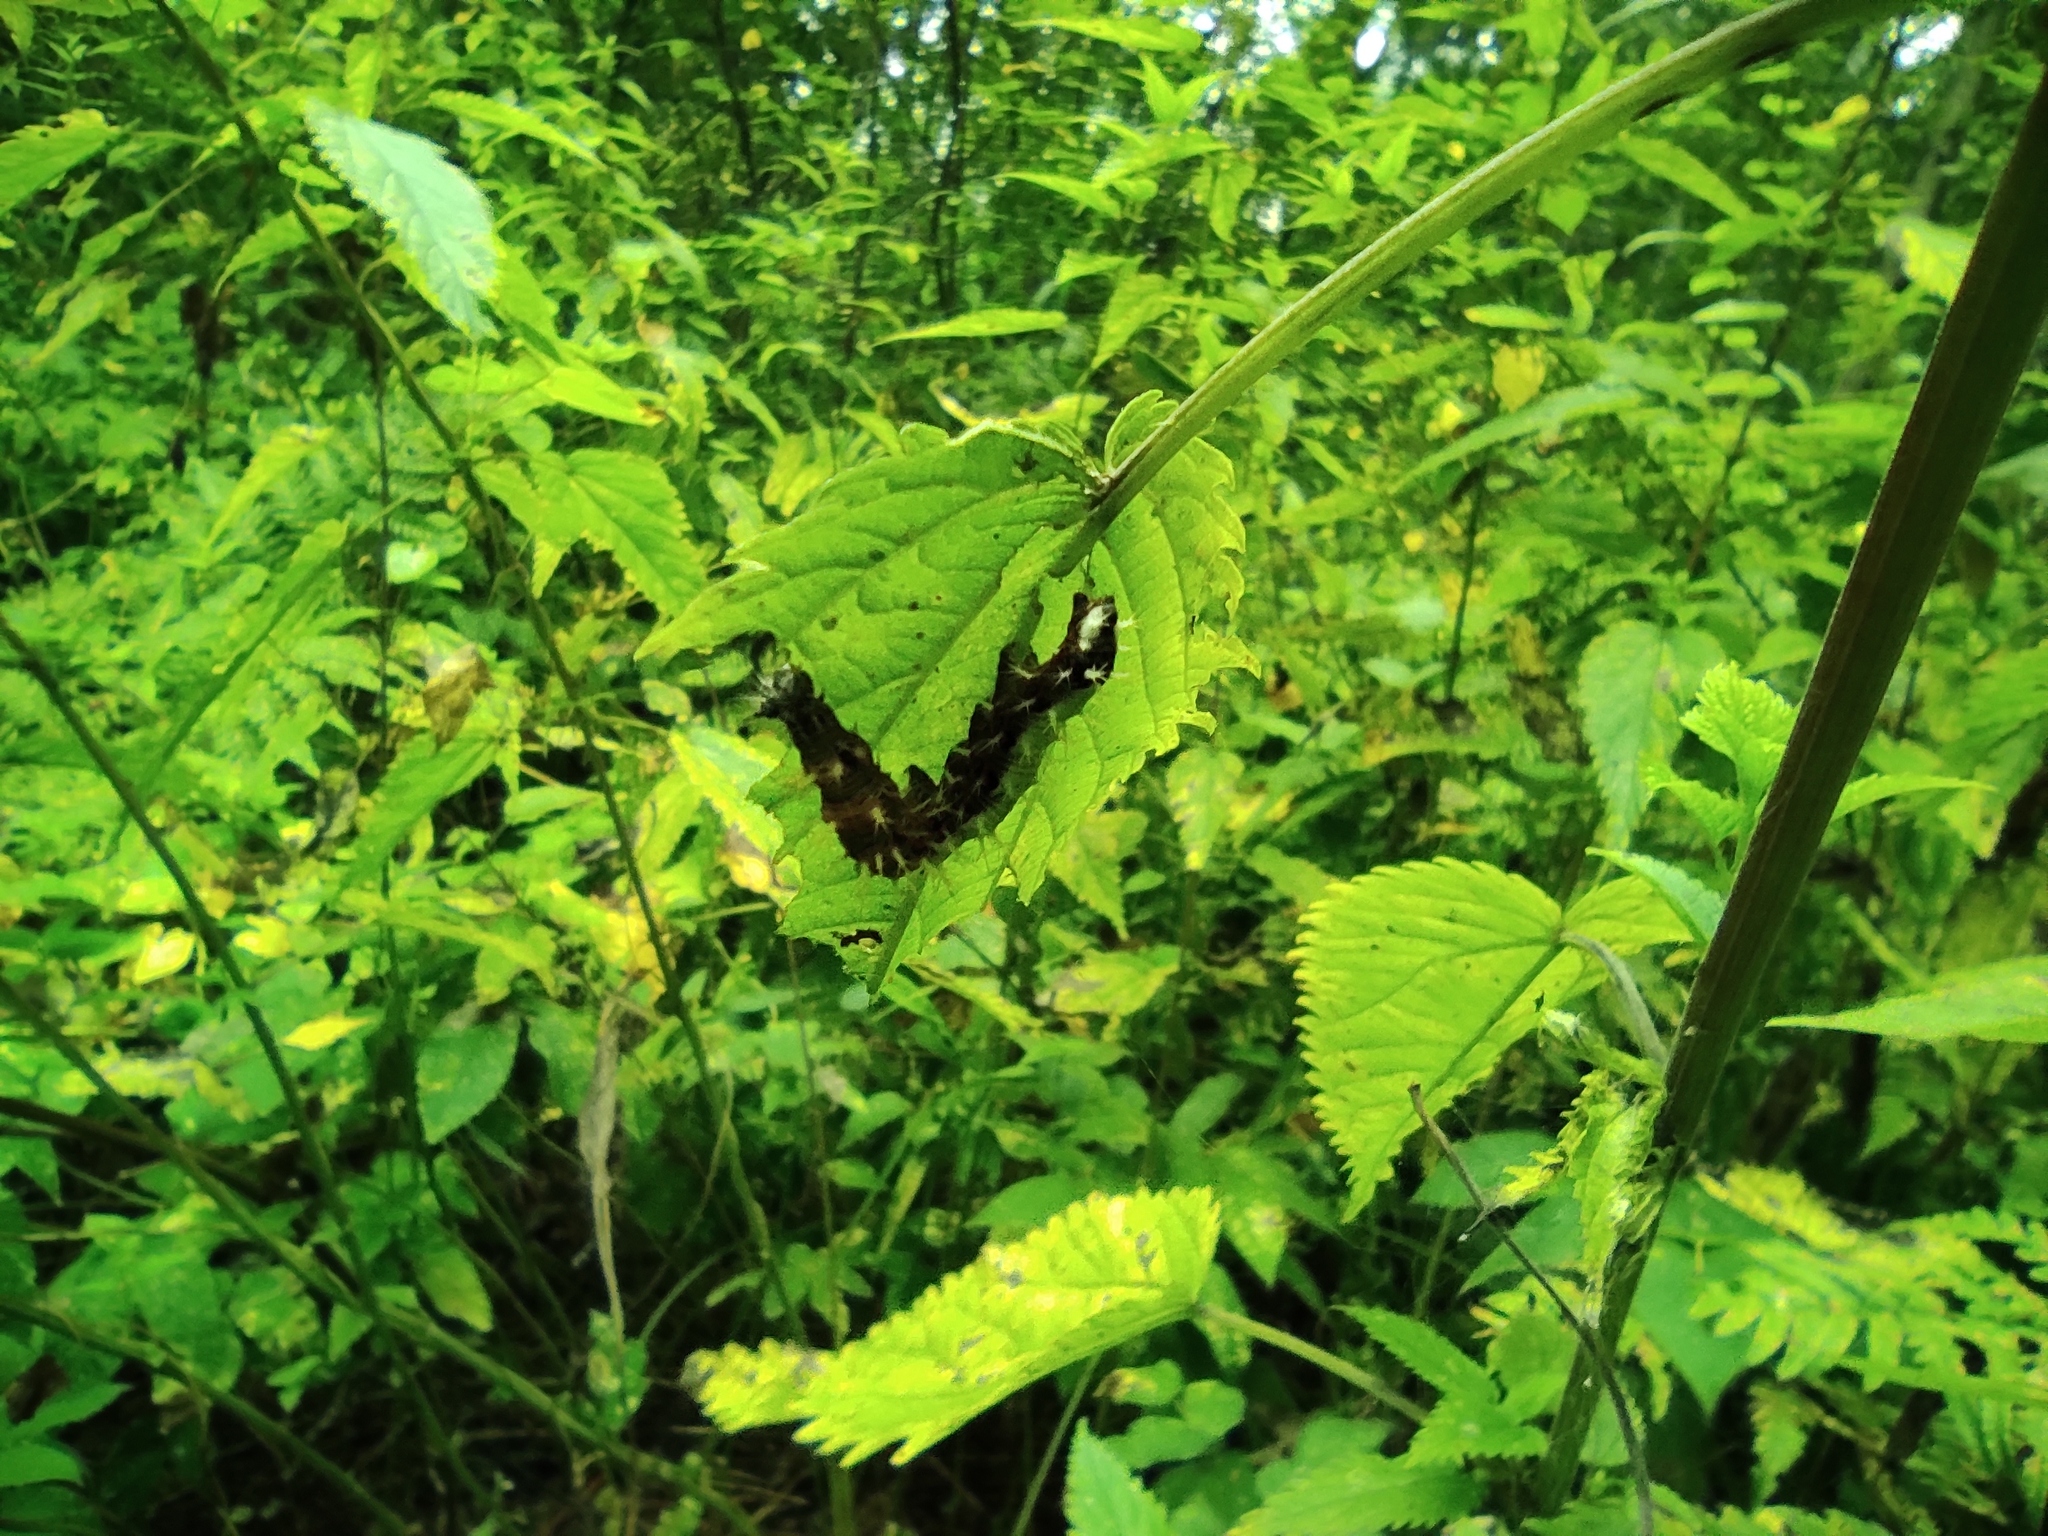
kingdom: Animalia
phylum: Arthropoda
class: Insecta
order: Lepidoptera
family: Nymphalidae
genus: Polygonia
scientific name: Polygonia c-album
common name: Comma
